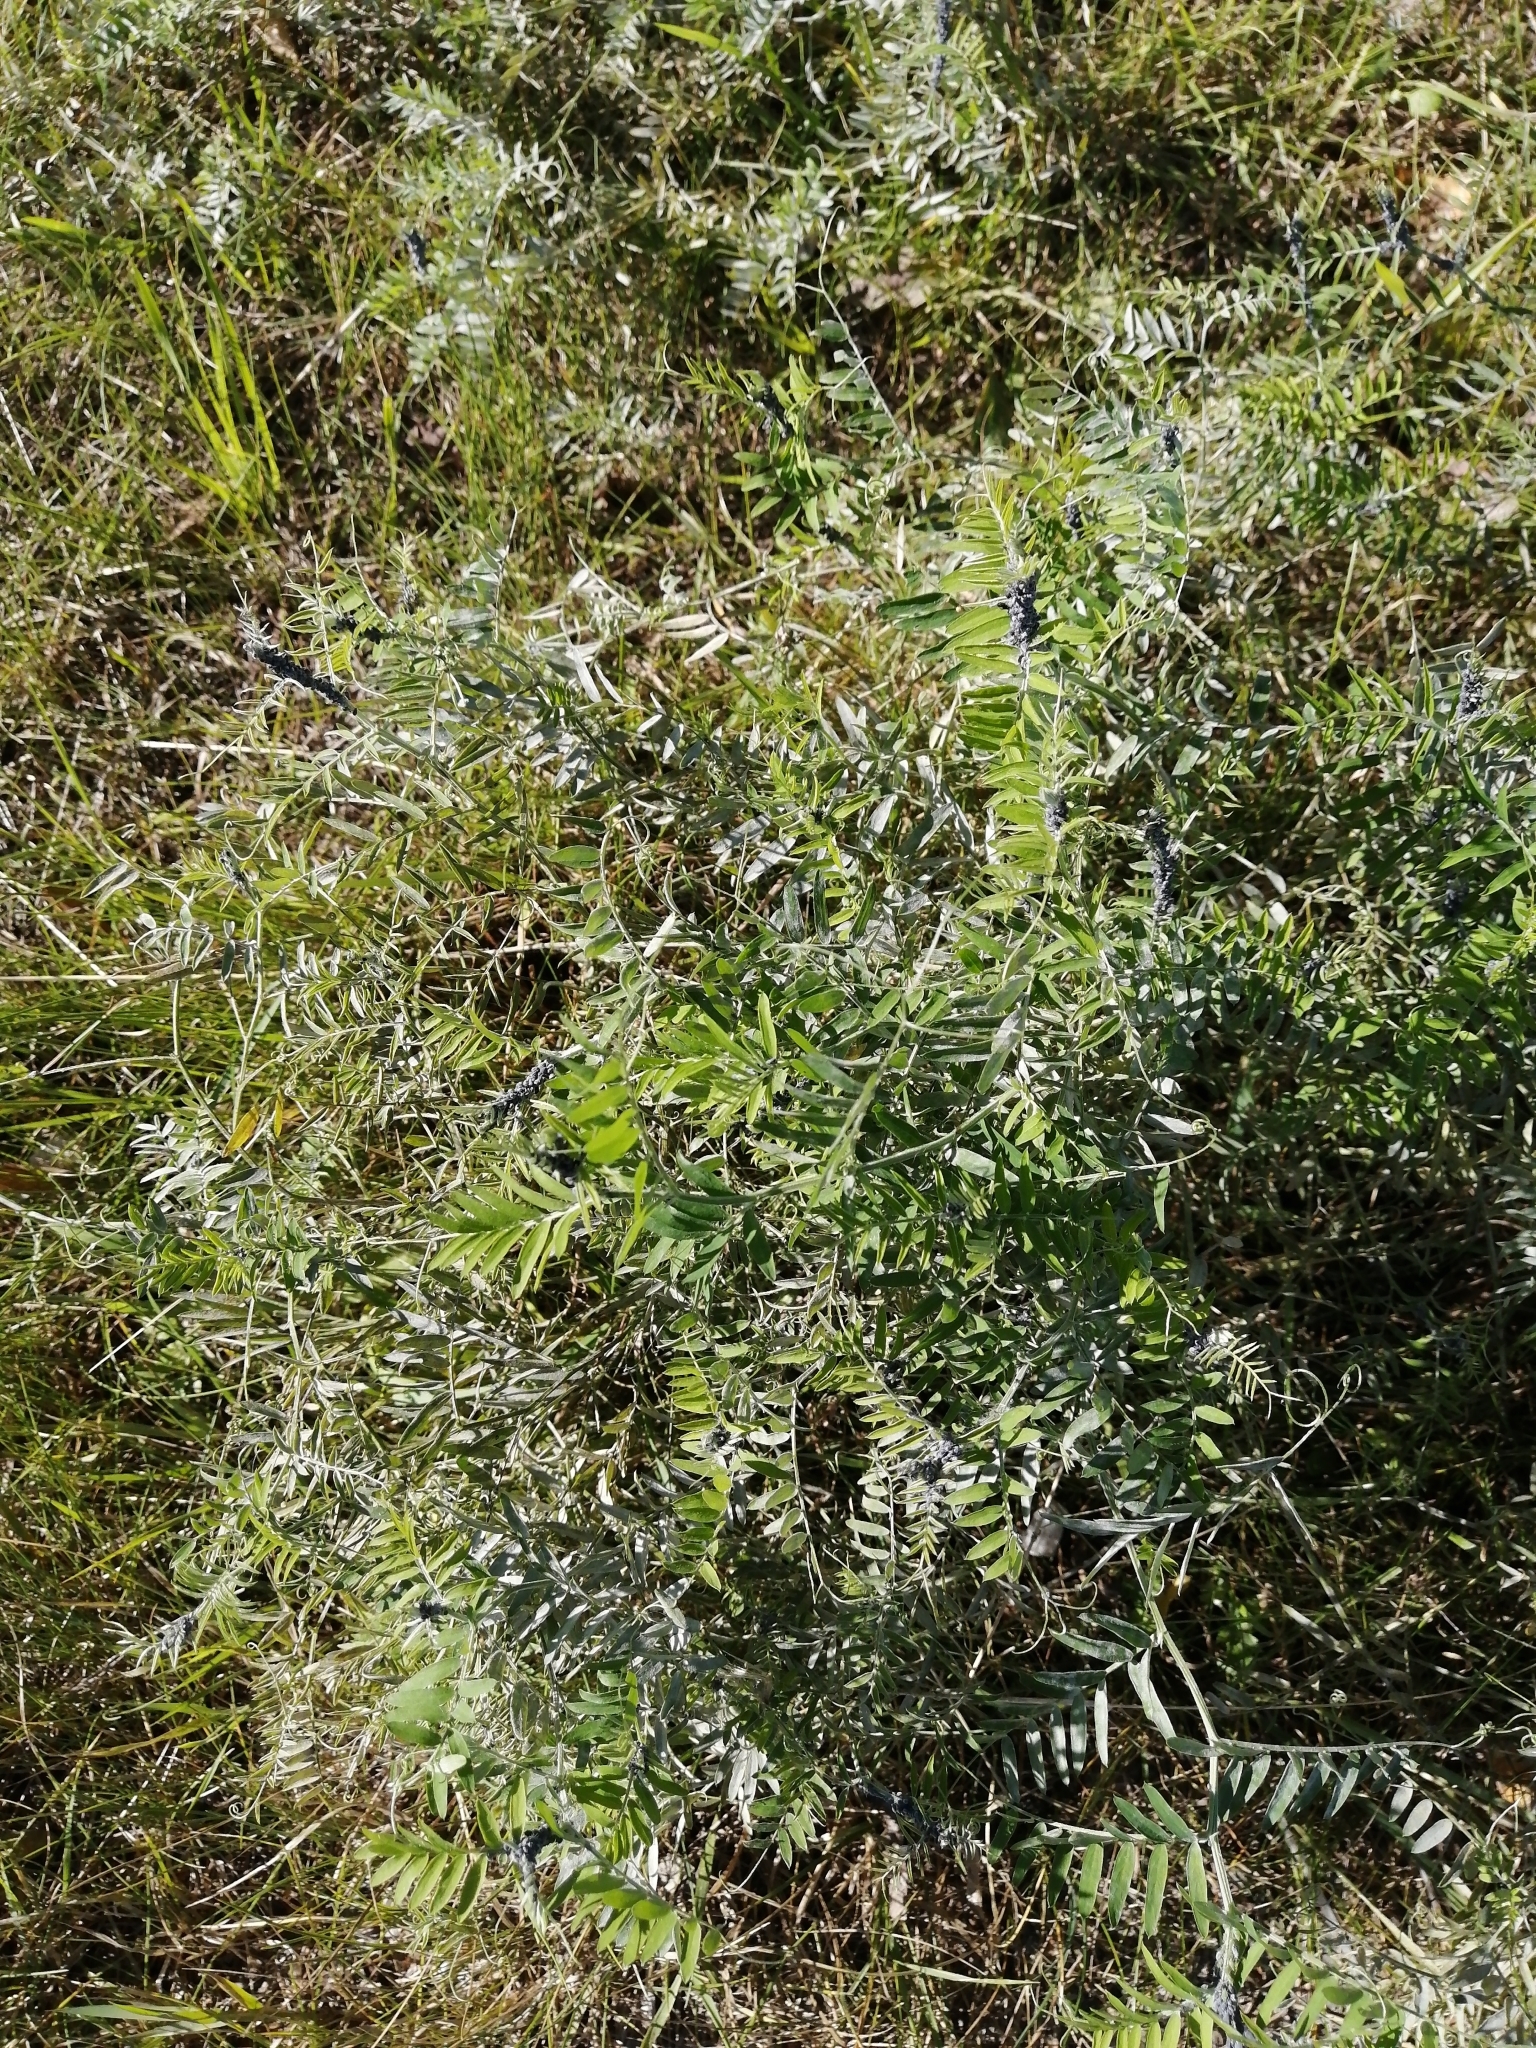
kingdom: Plantae
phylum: Tracheophyta
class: Magnoliopsida
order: Fabales
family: Fabaceae
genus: Vicia
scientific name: Vicia cracca
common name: Bird vetch
